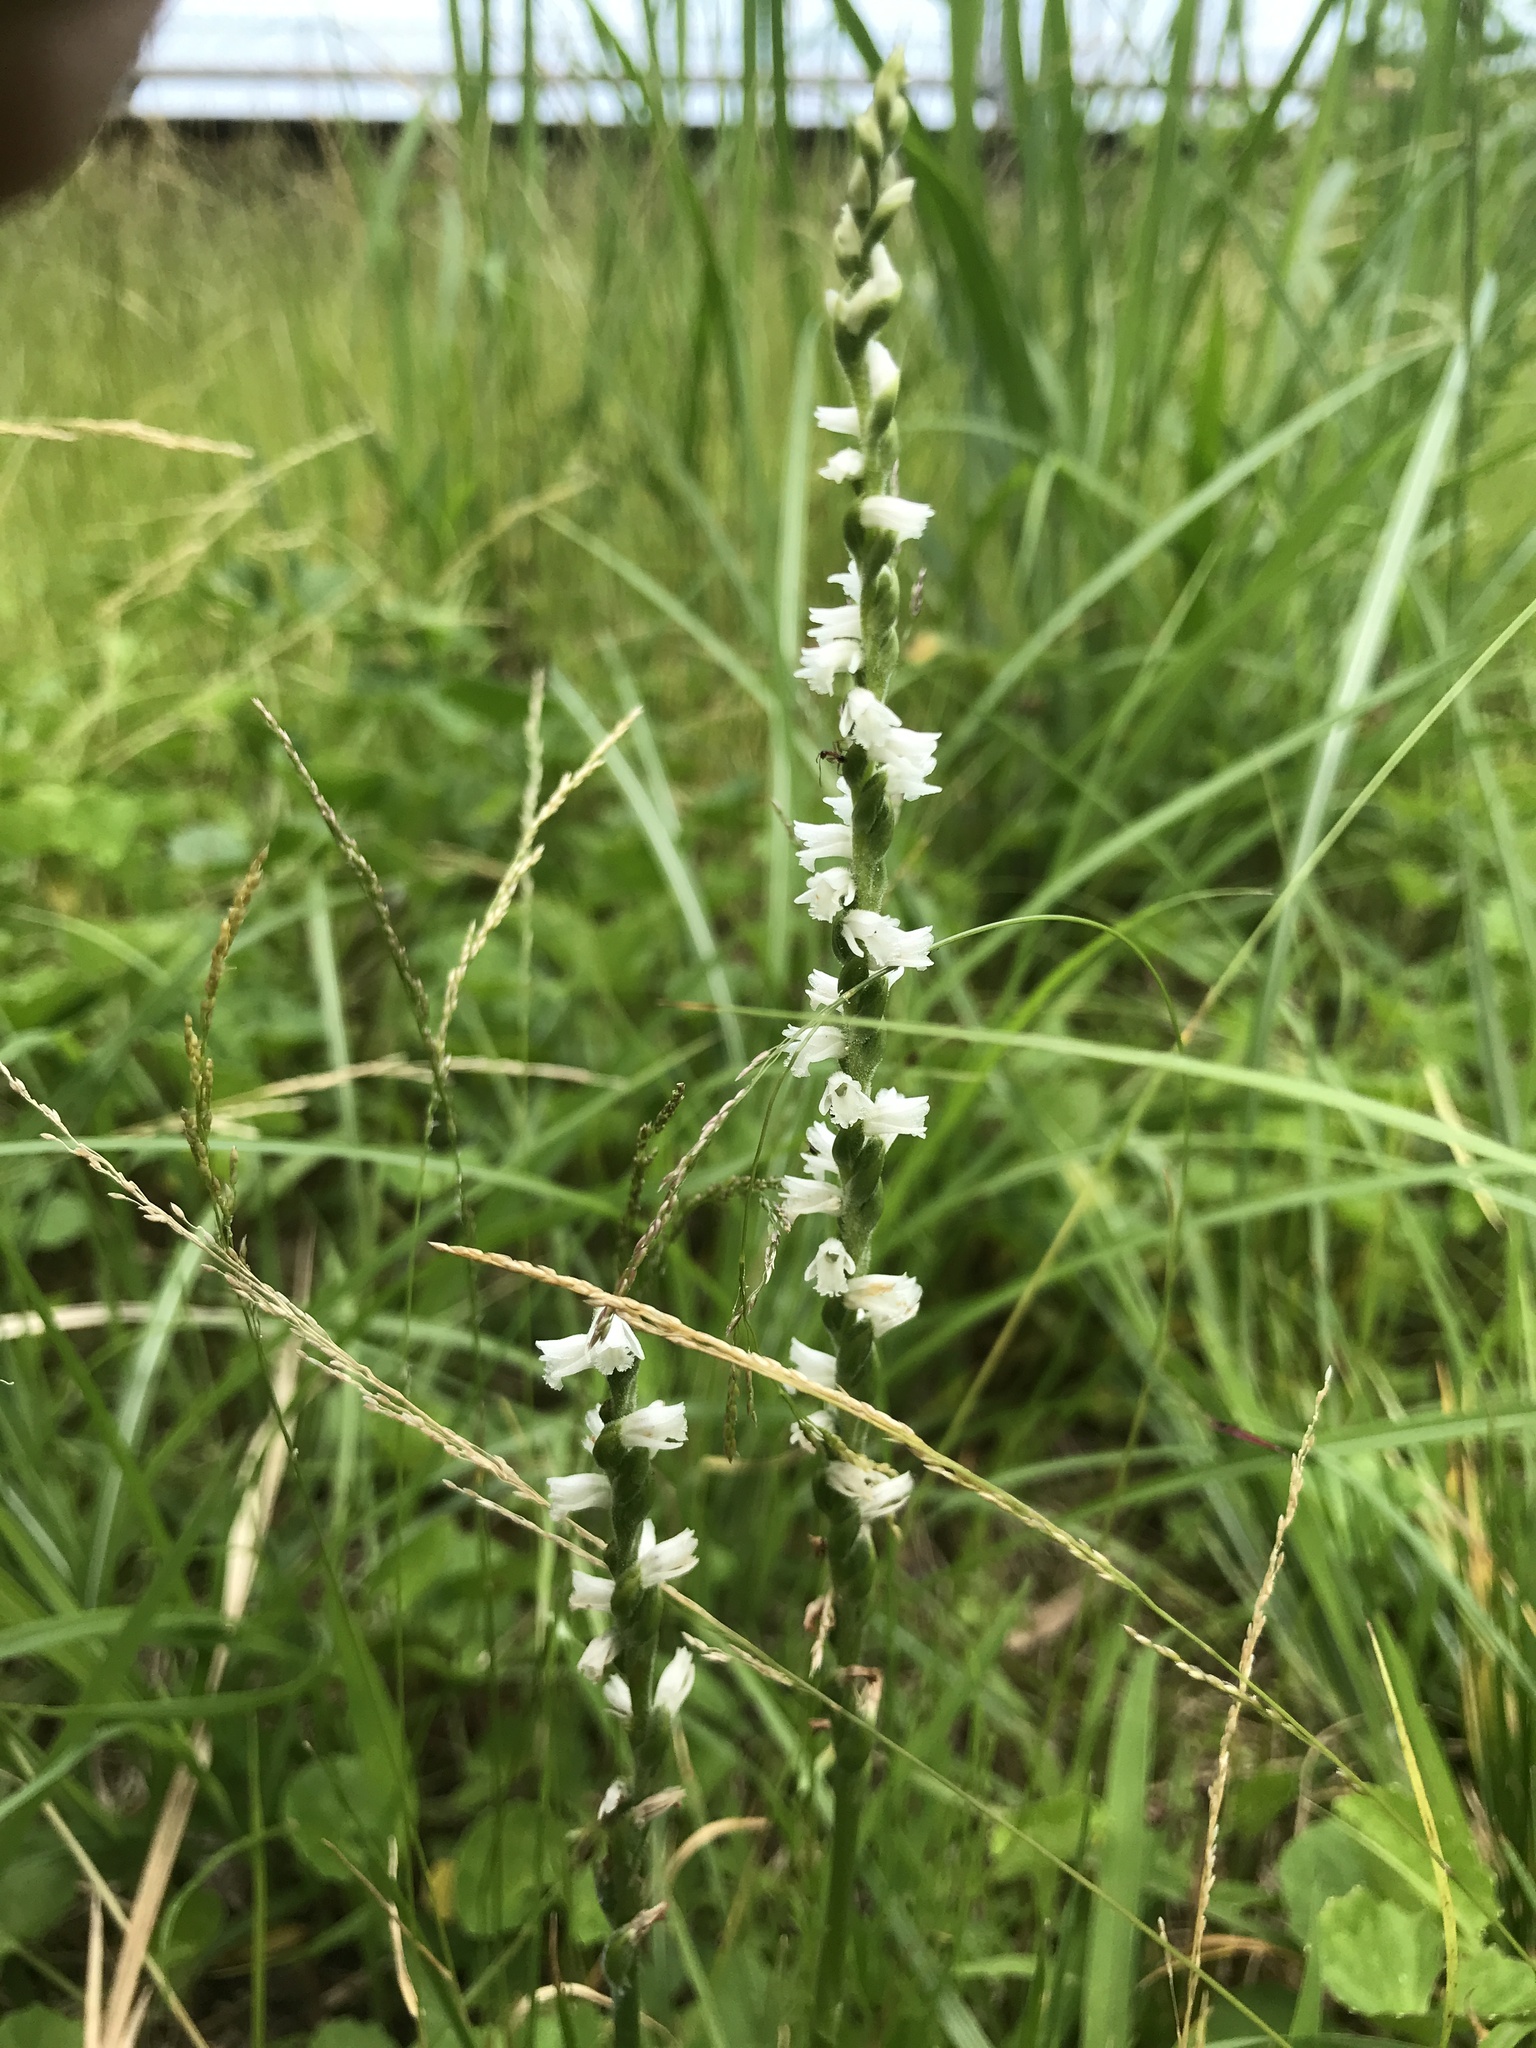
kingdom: Plantae
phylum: Tracheophyta
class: Liliopsida
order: Asparagales
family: Orchidaceae
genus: Spiranthes
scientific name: Spiranthes australis
